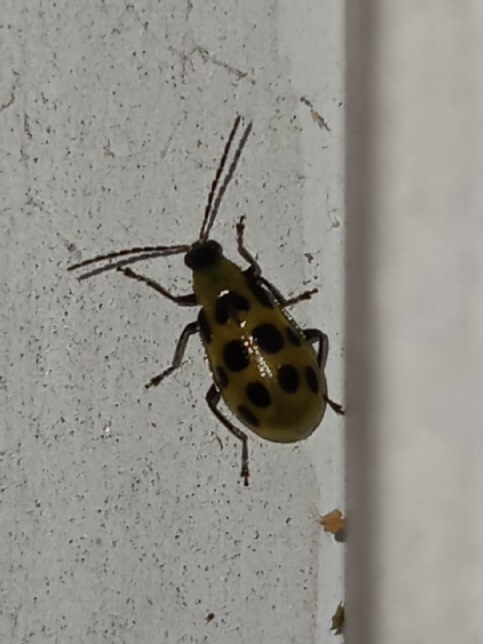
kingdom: Animalia
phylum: Arthropoda
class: Insecta
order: Coleoptera
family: Chrysomelidae
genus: Diabrotica
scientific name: Diabrotica undecimpunctata
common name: Spotted cucumber beetle
